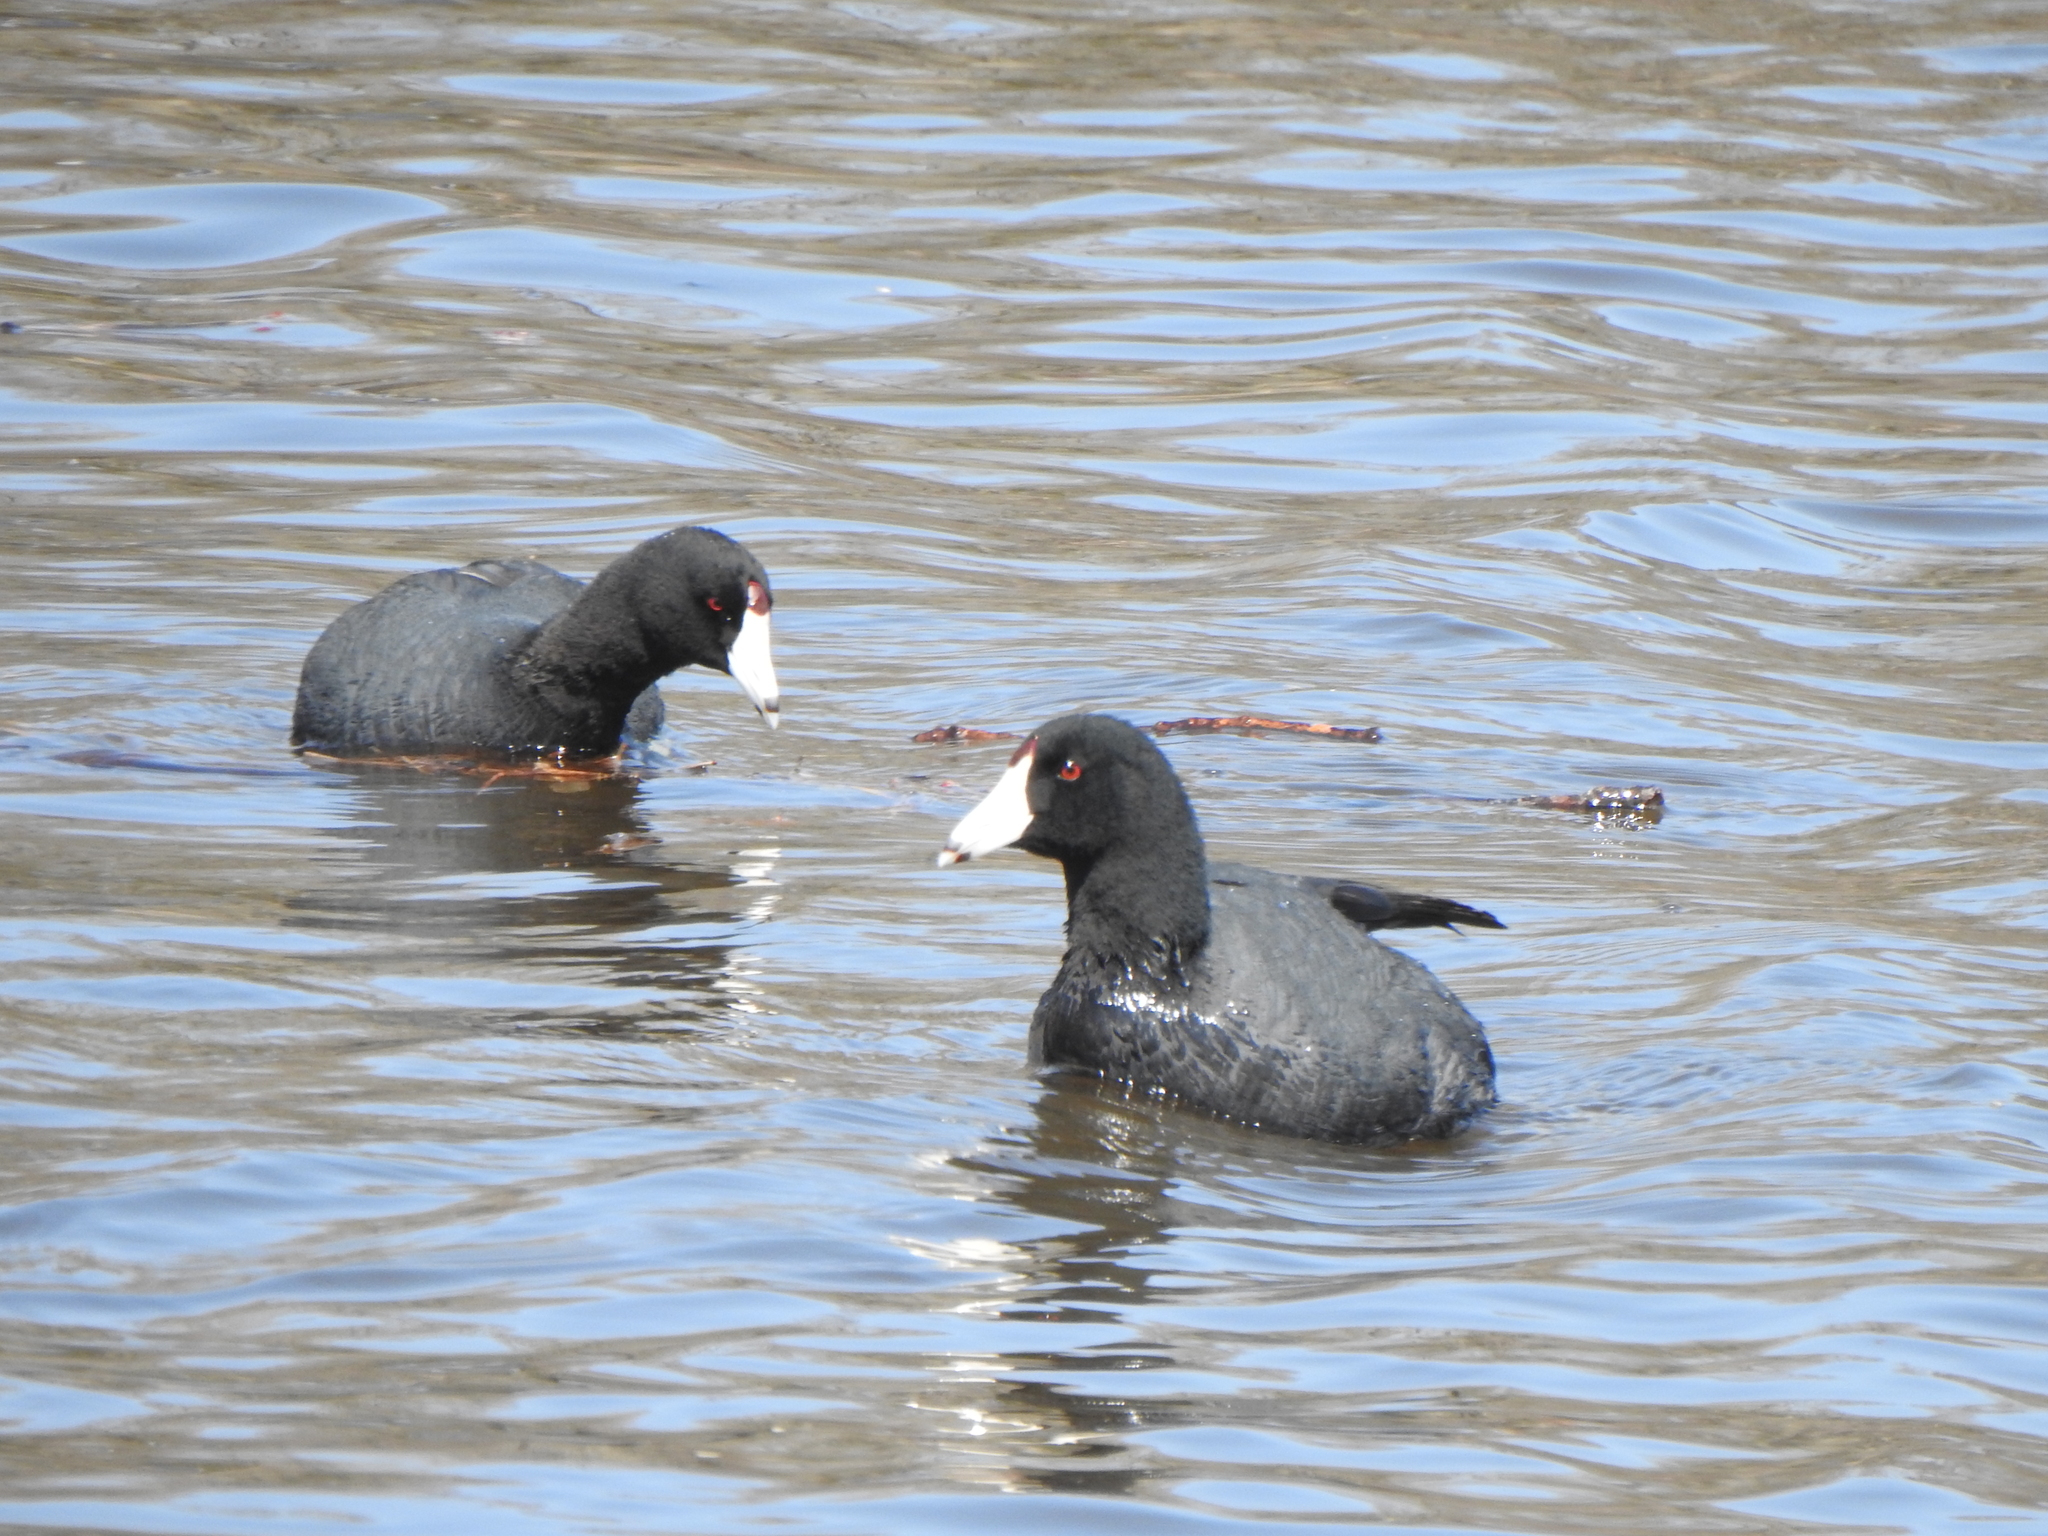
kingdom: Animalia
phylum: Chordata
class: Aves
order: Gruiformes
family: Rallidae
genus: Fulica
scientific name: Fulica americana
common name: American coot
